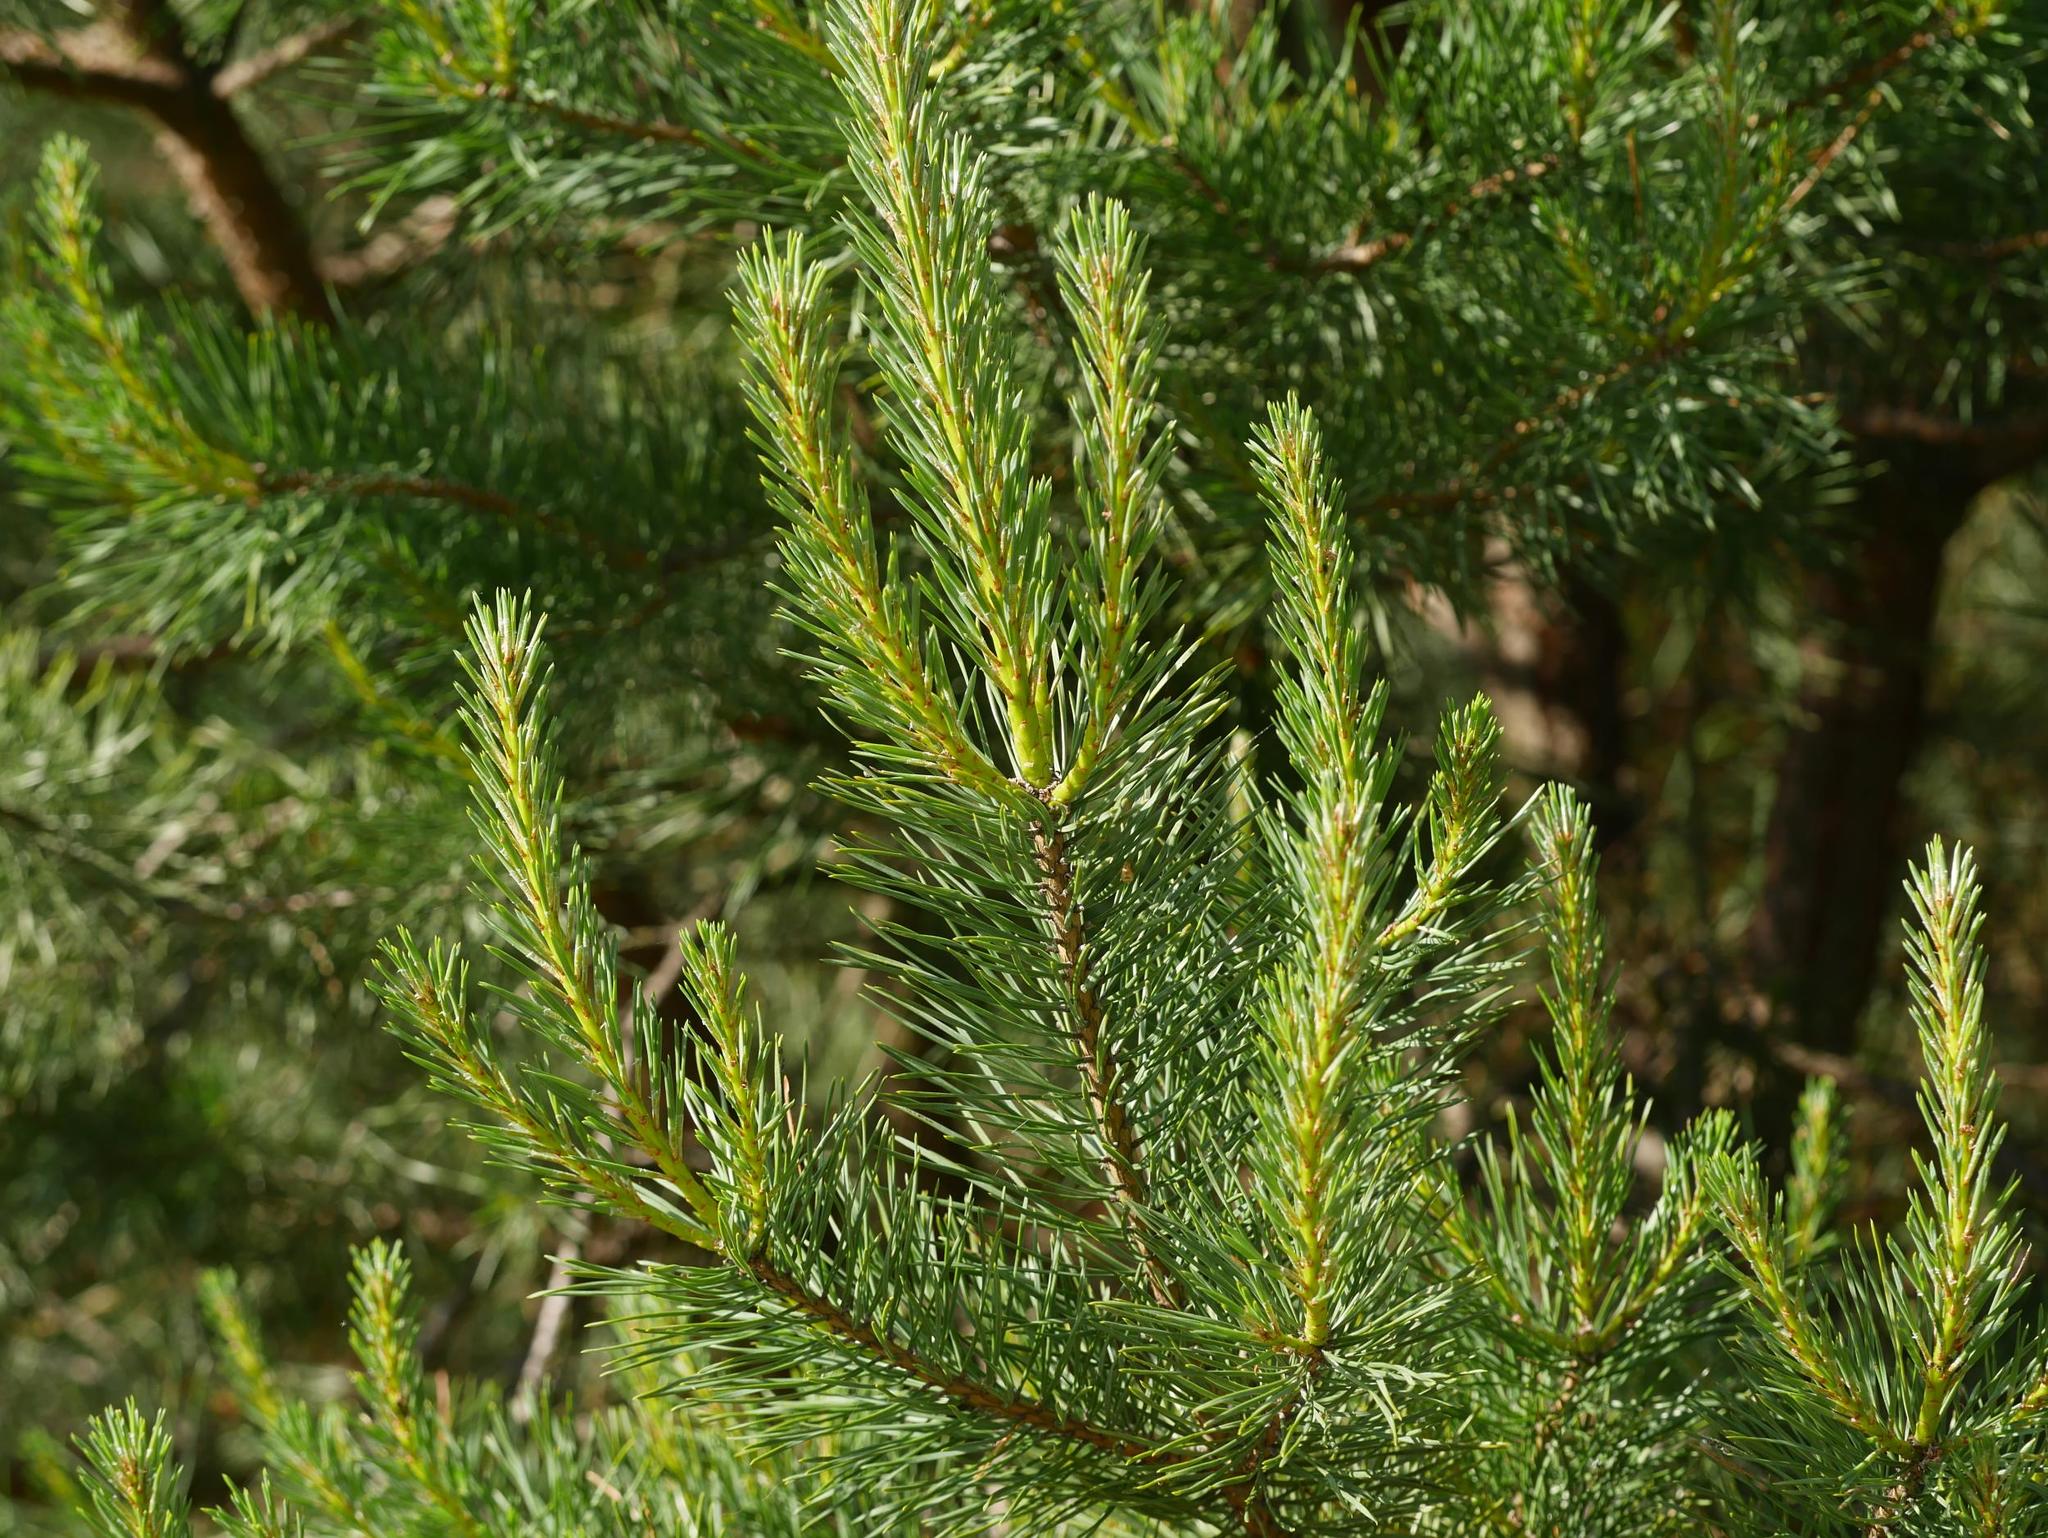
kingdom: Plantae
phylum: Tracheophyta
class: Pinopsida
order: Pinales
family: Pinaceae
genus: Pinus
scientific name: Pinus sylvestris
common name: Scots pine
